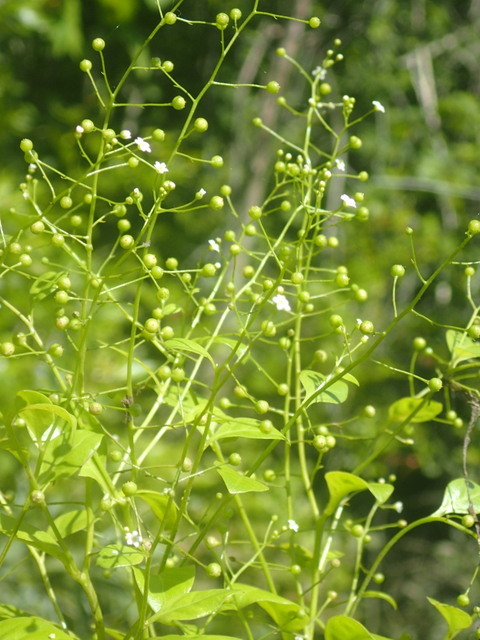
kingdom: Plantae
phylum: Tracheophyta
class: Magnoliopsida
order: Ericales
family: Primulaceae
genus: Samolus
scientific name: Samolus parviflorus
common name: False water pimpernel
